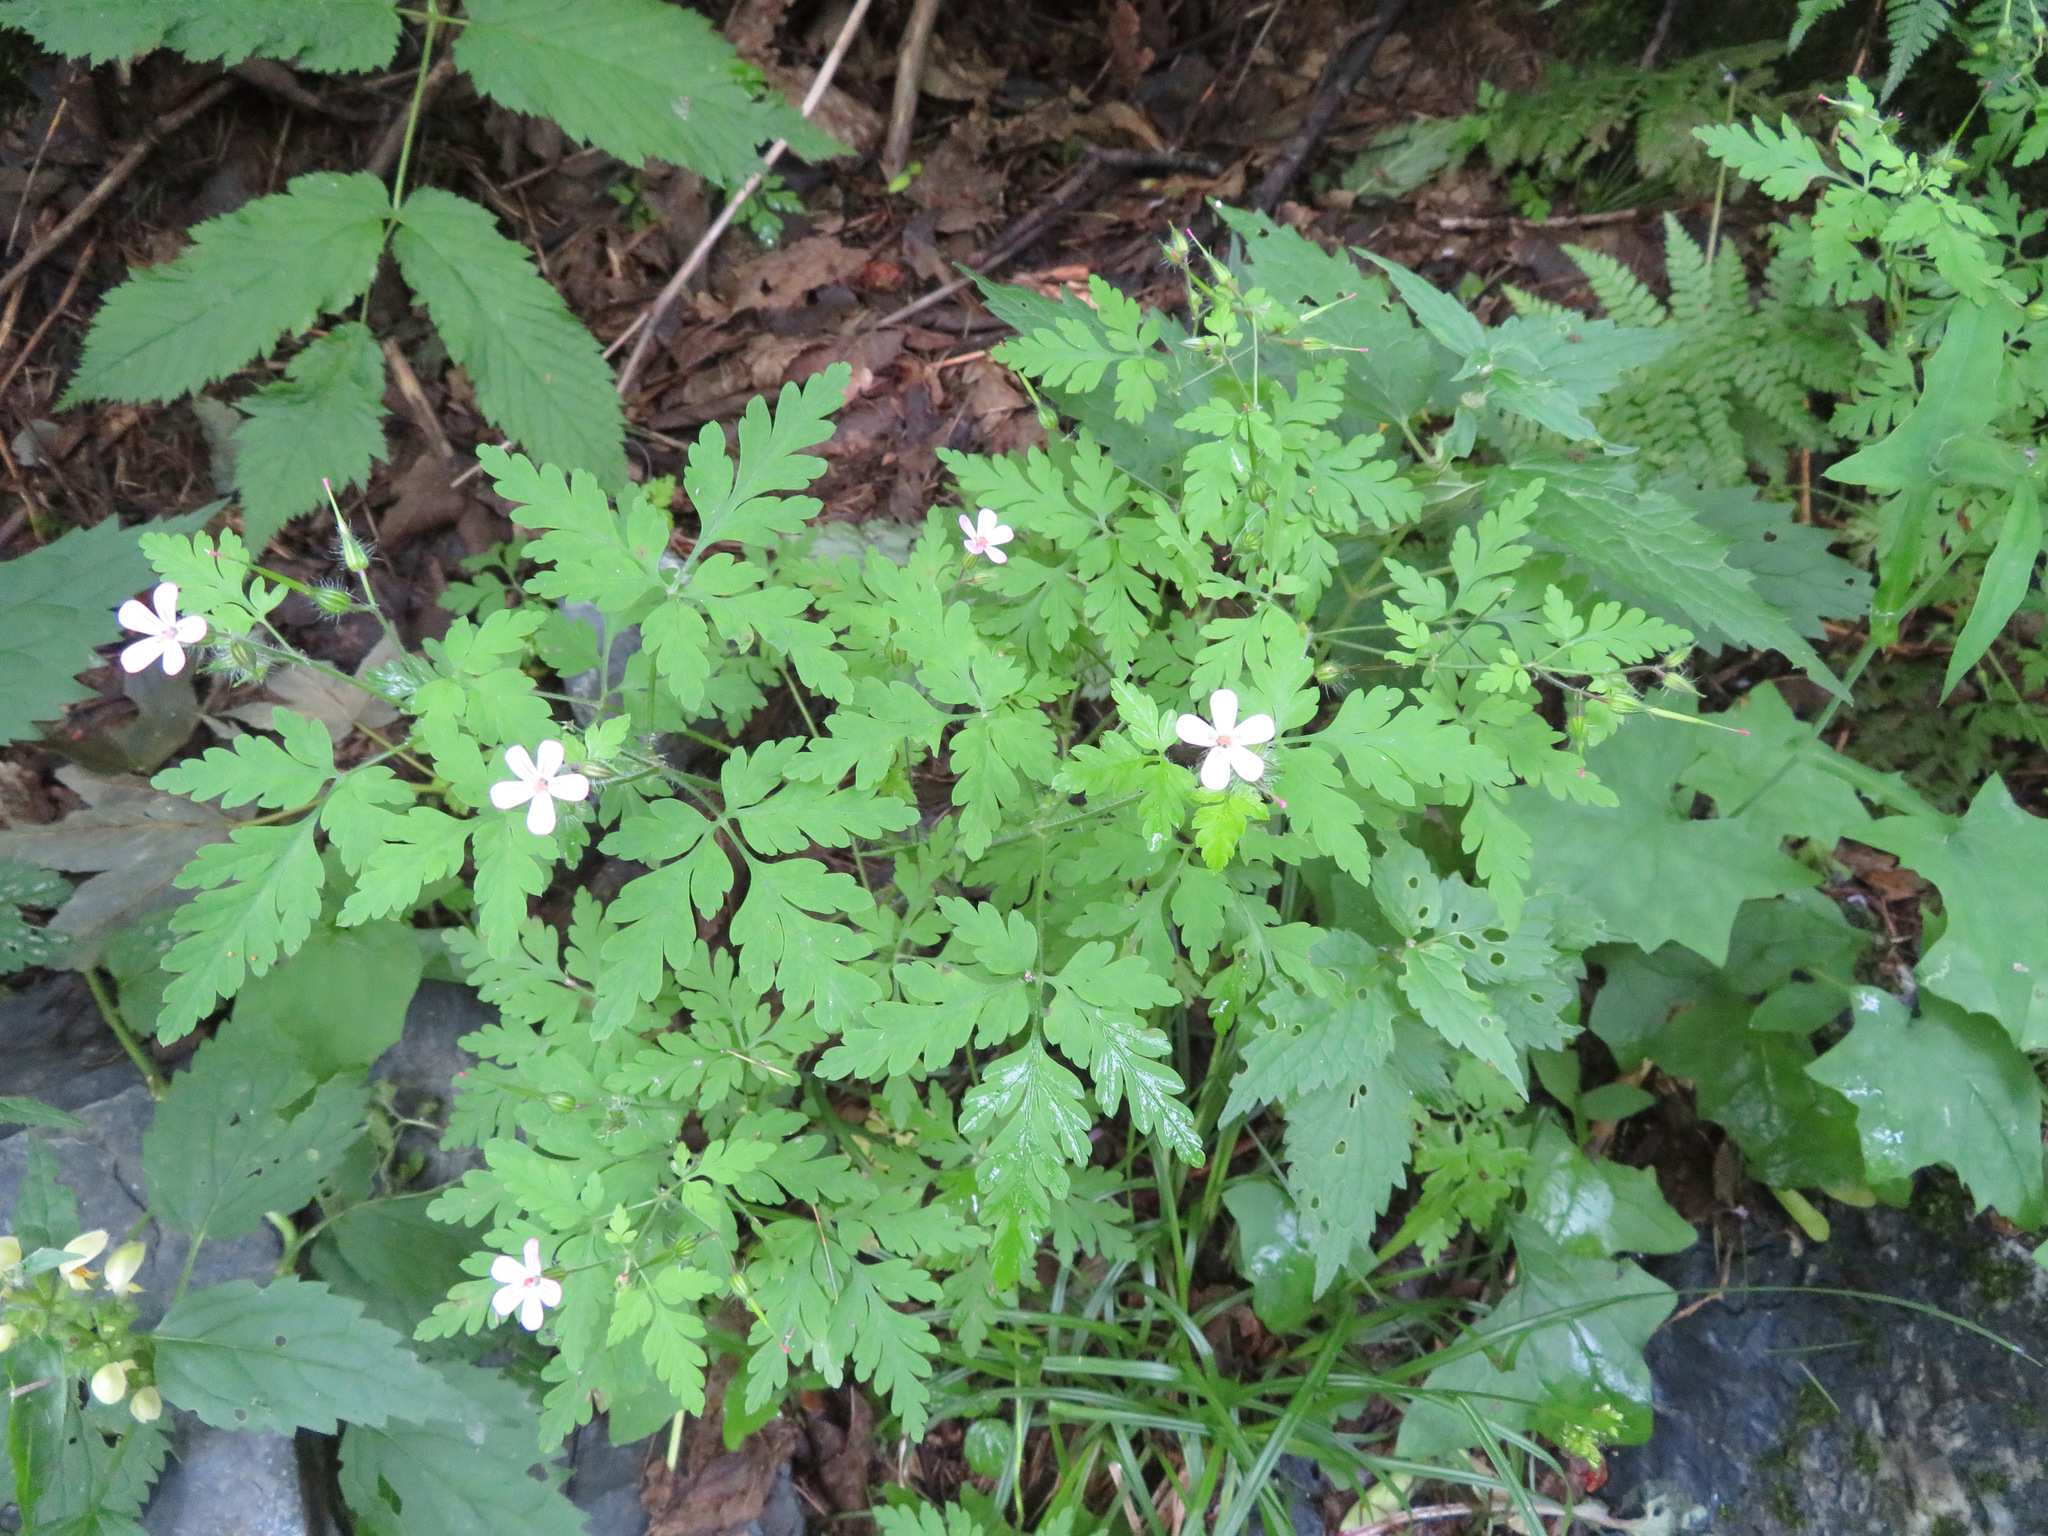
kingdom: Plantae
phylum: Tracheophyta
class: Magnoliopsida
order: Geraniales
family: Geraniaceae
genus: Geranium
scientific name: Geranium robertianum
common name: Herb-robert
